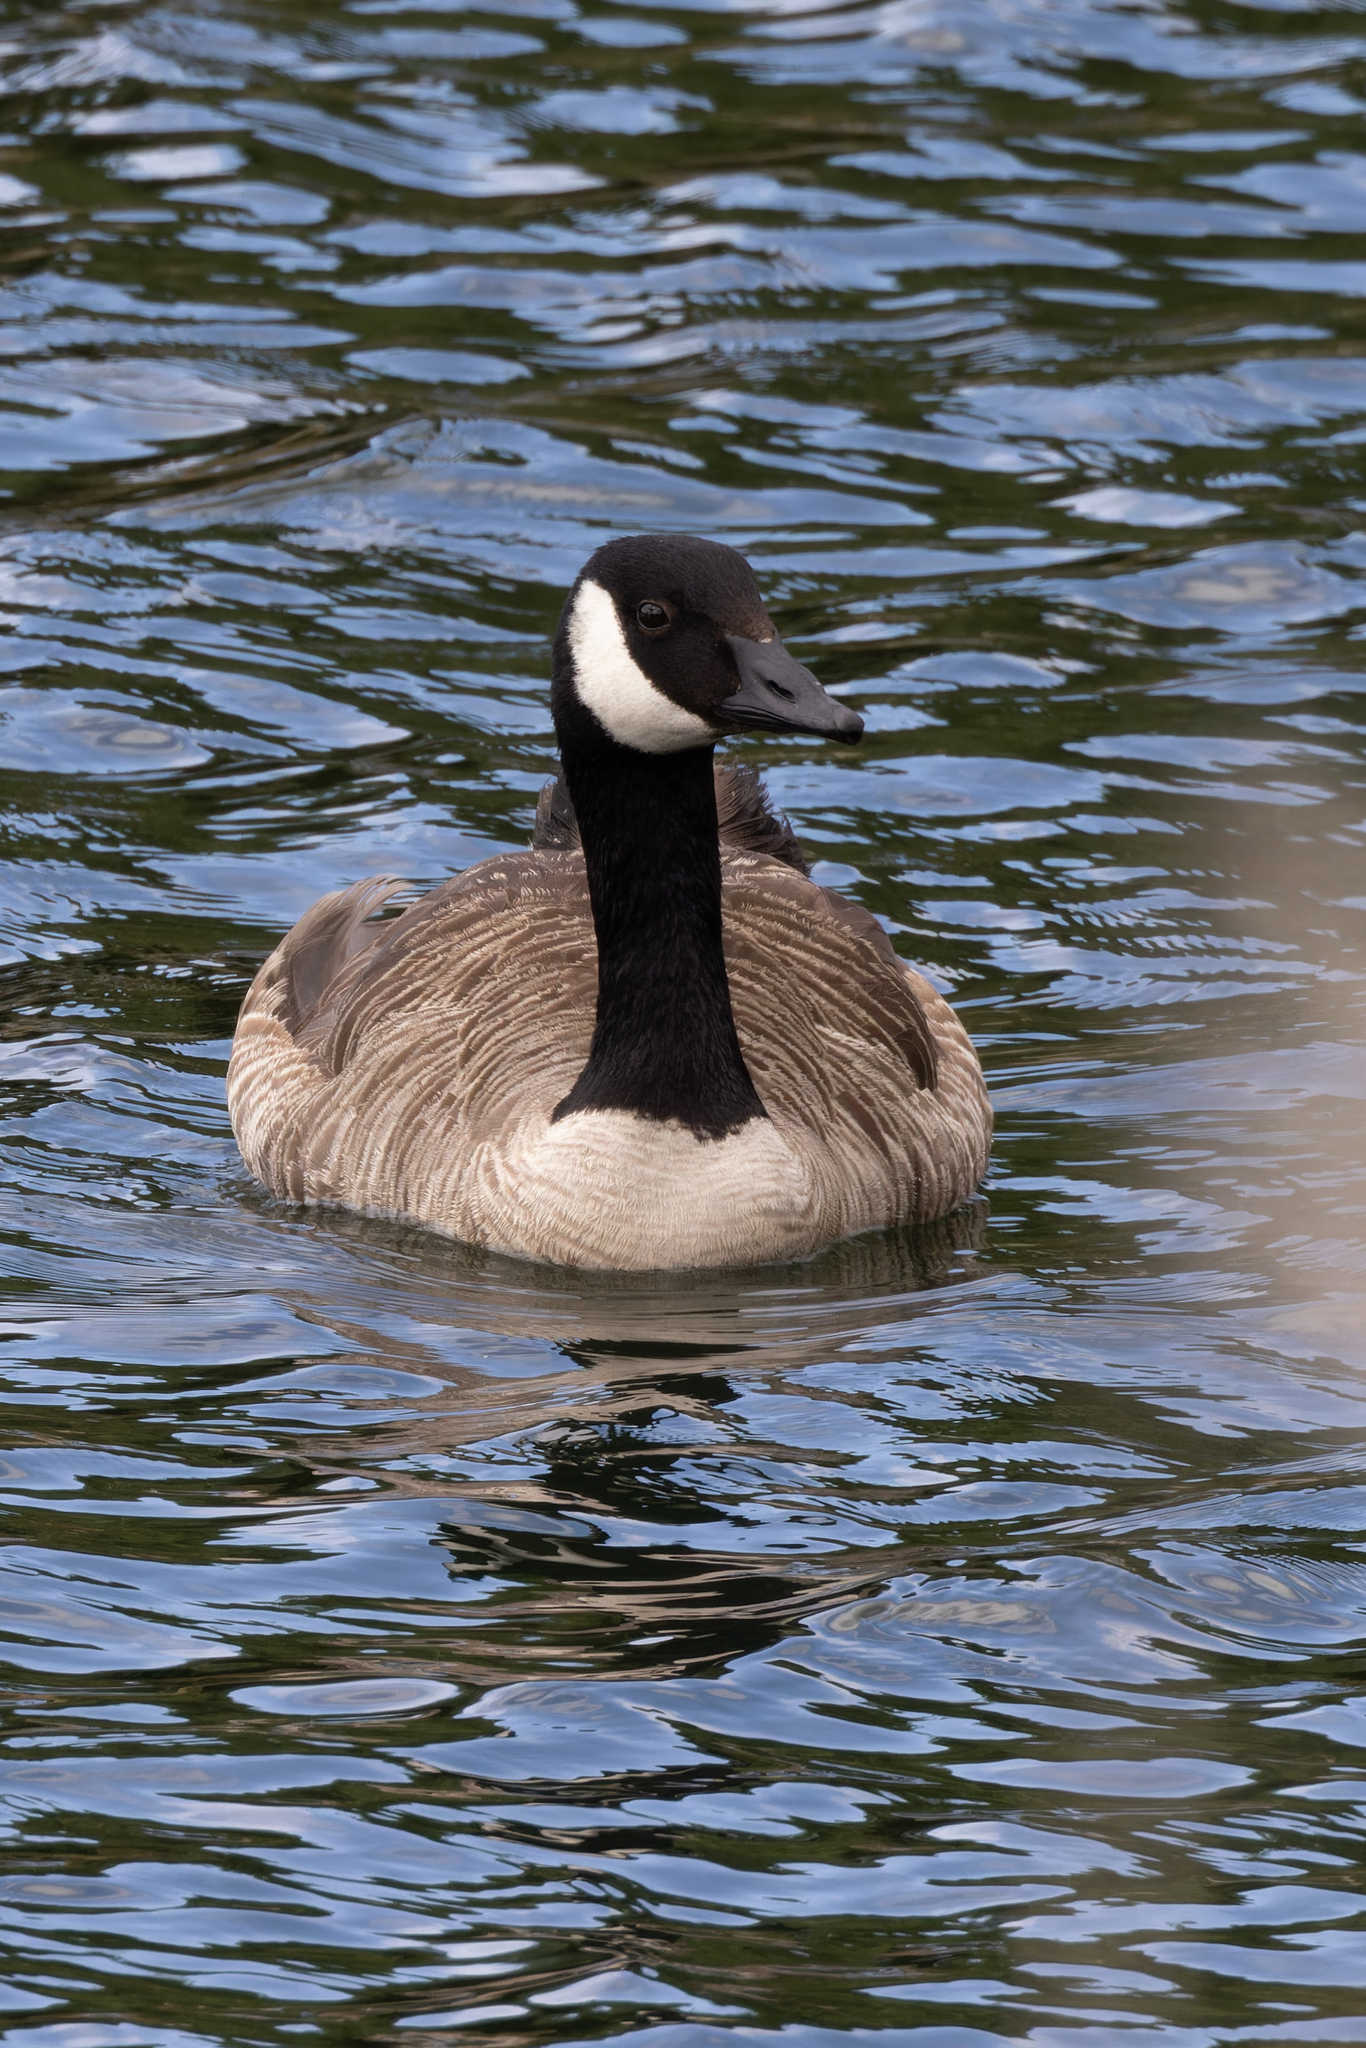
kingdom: Animalia
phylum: Chordata
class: Aves
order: Anseriformes
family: Anatidae
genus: Branta
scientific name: Branta canadensis
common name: Canada goose
